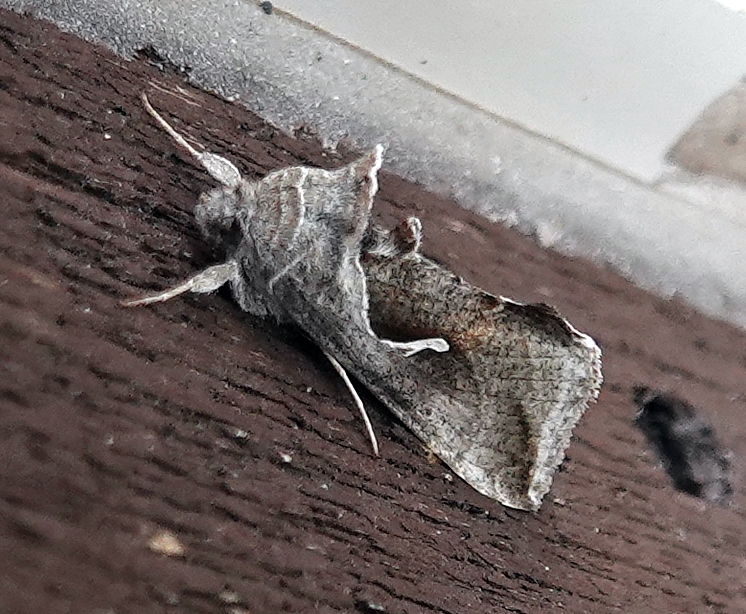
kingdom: Animalia
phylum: Arthropoda
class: Insecta
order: Lepidoptera
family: Noctuidae
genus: Anagrapha
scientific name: Anagrapha falcifera
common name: Celery looper
